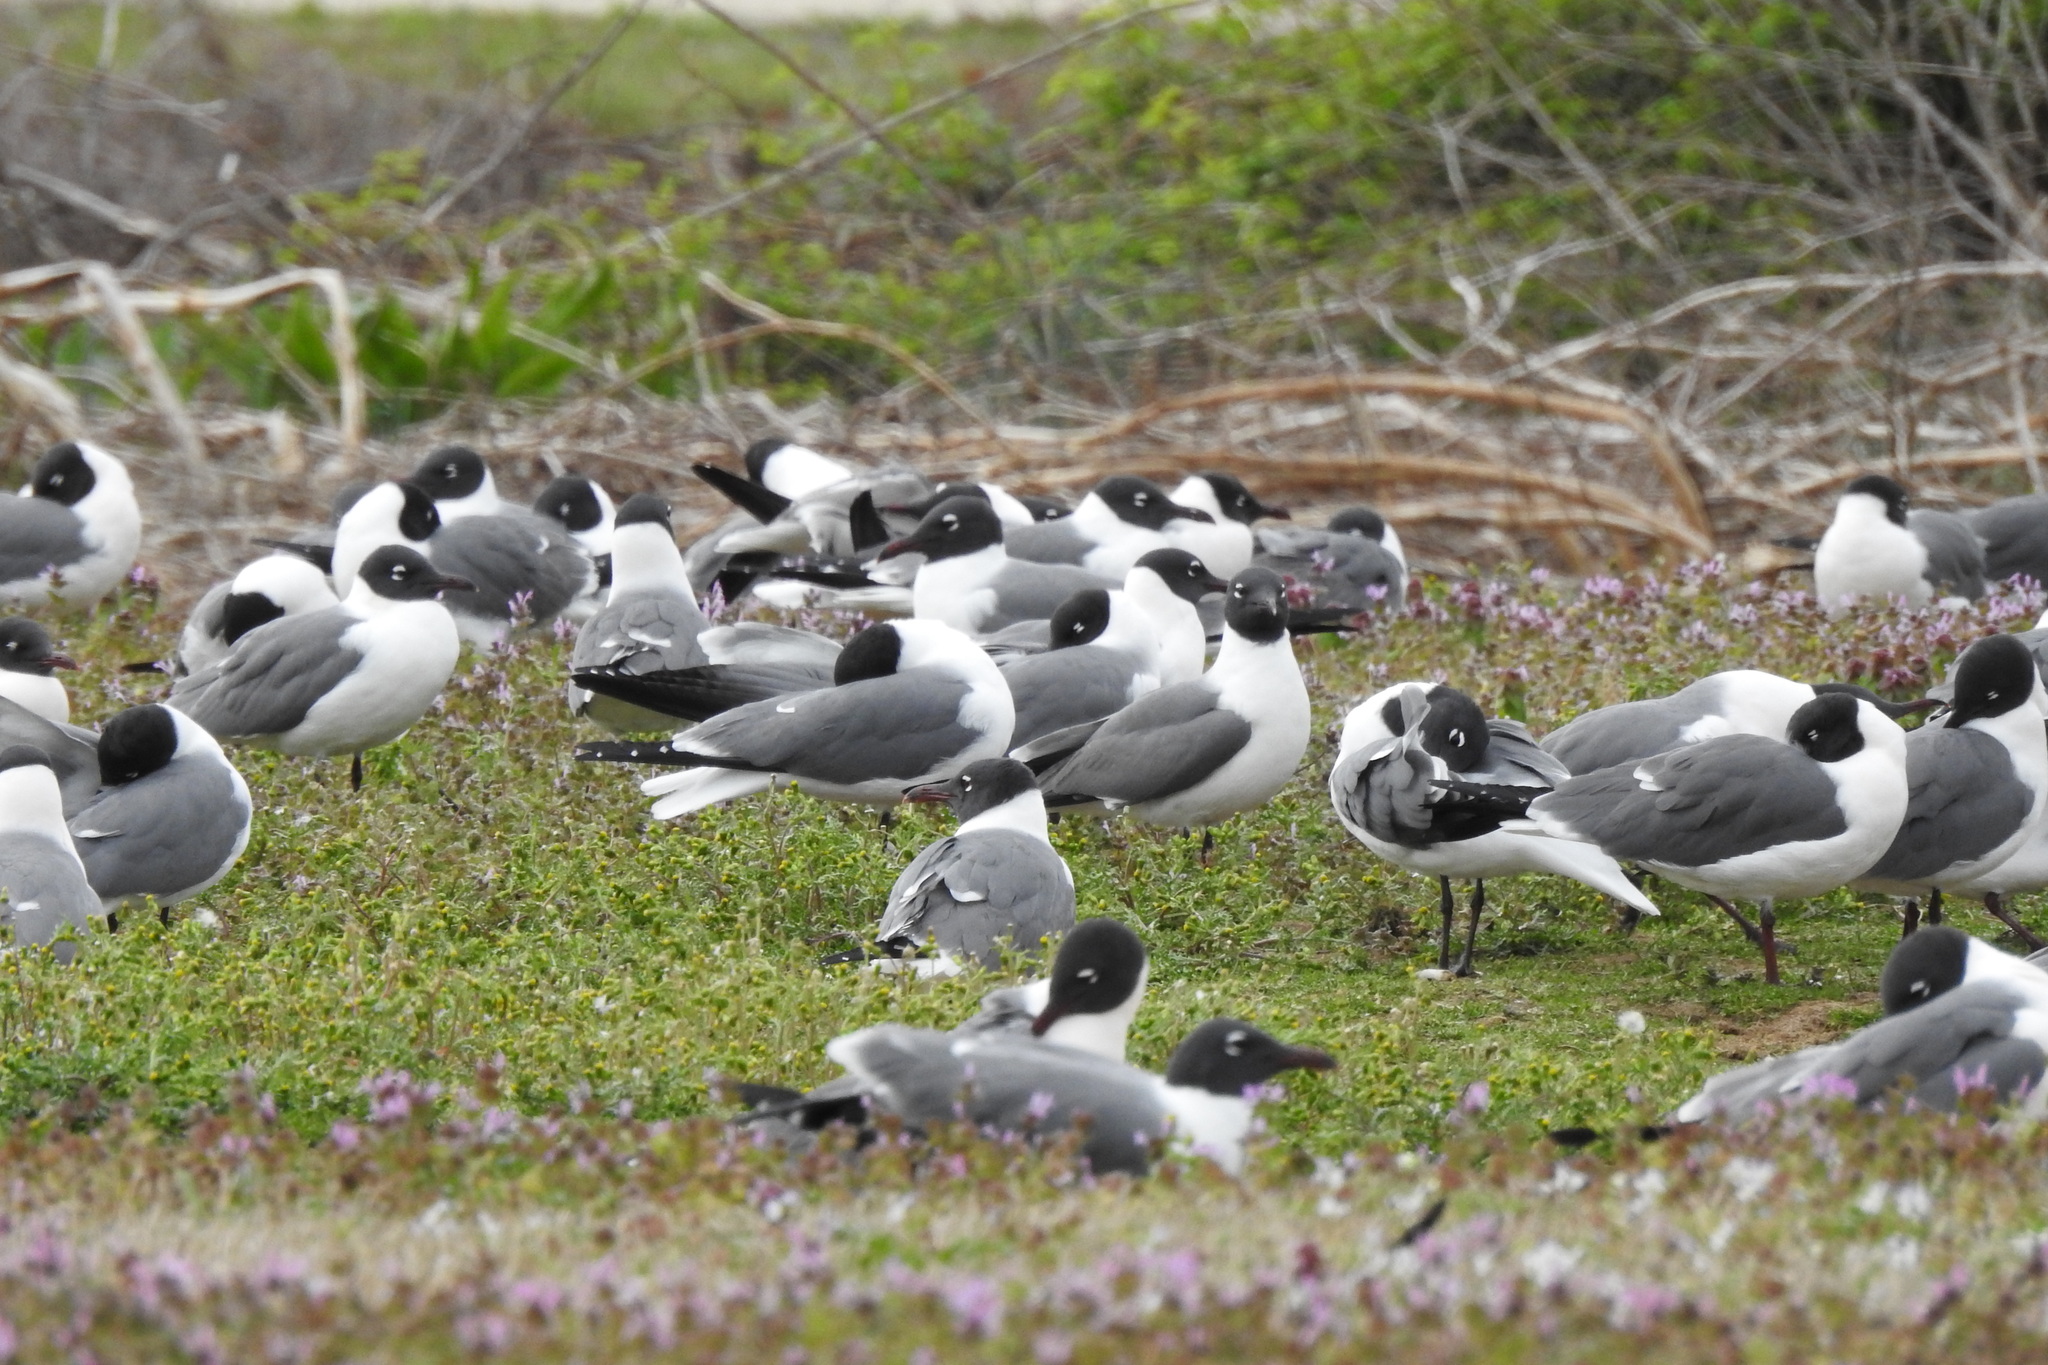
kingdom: Animalia
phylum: Chordata
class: Aves
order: Charadriiformes
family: Laridae
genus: Leucophaeus
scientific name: Leucophaeus atricilla
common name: Laughing gull
